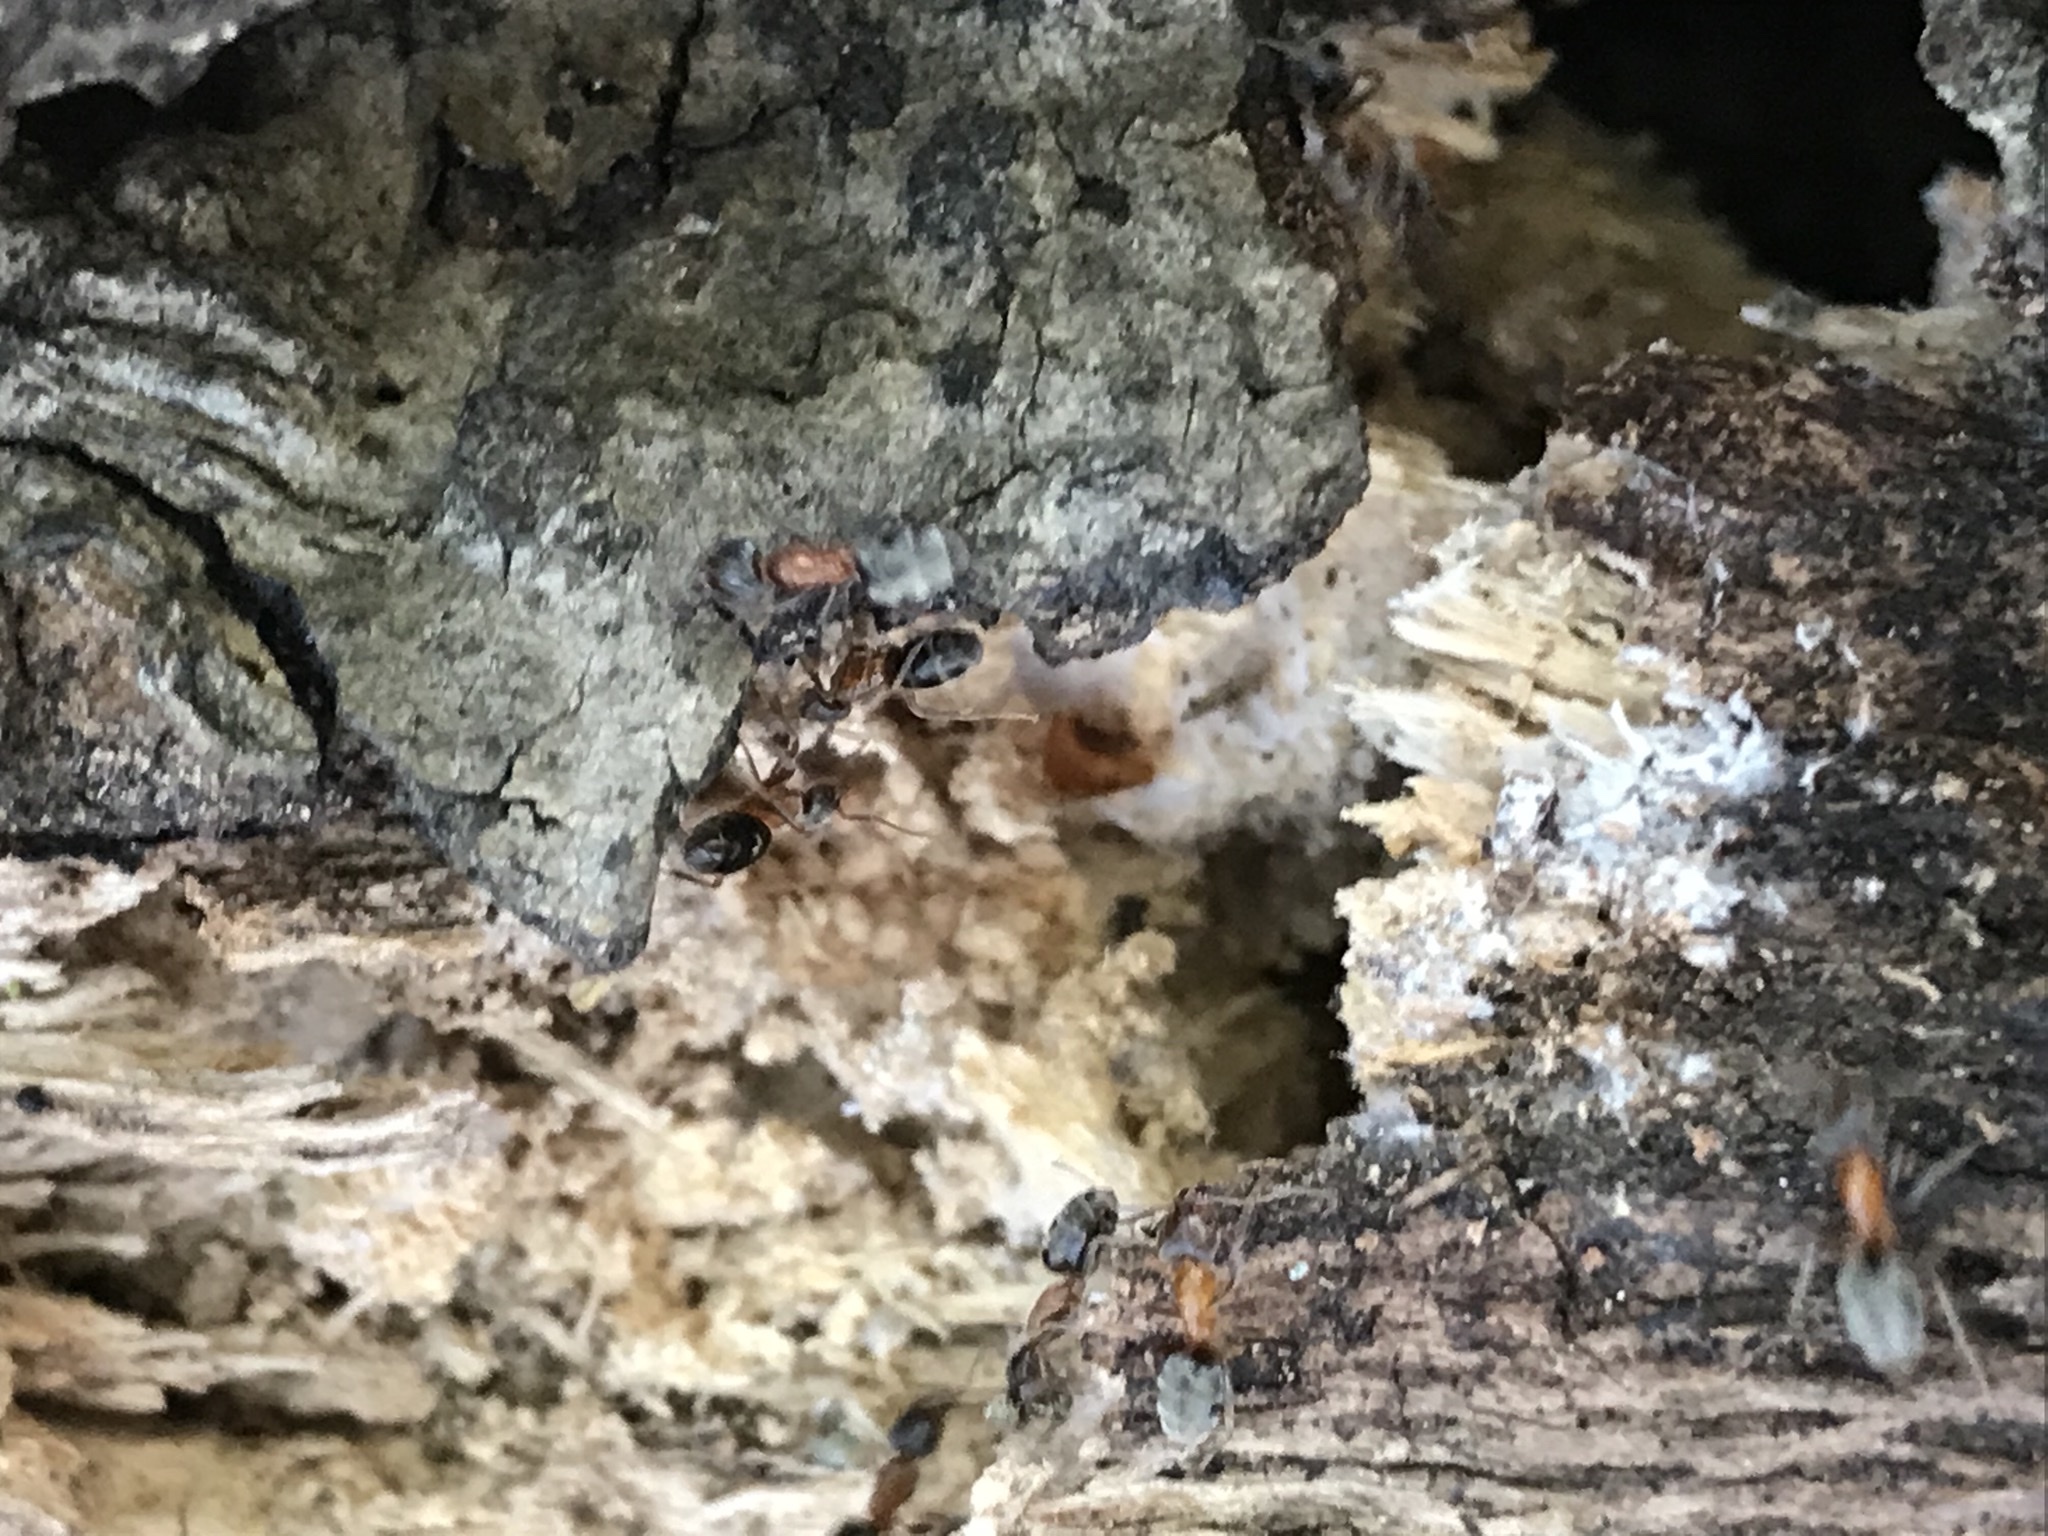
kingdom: Animalia
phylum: Arthropoda
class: Insecta
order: Hymenoptera
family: Formicidae
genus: Liometopum
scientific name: Liometopum occidentale
